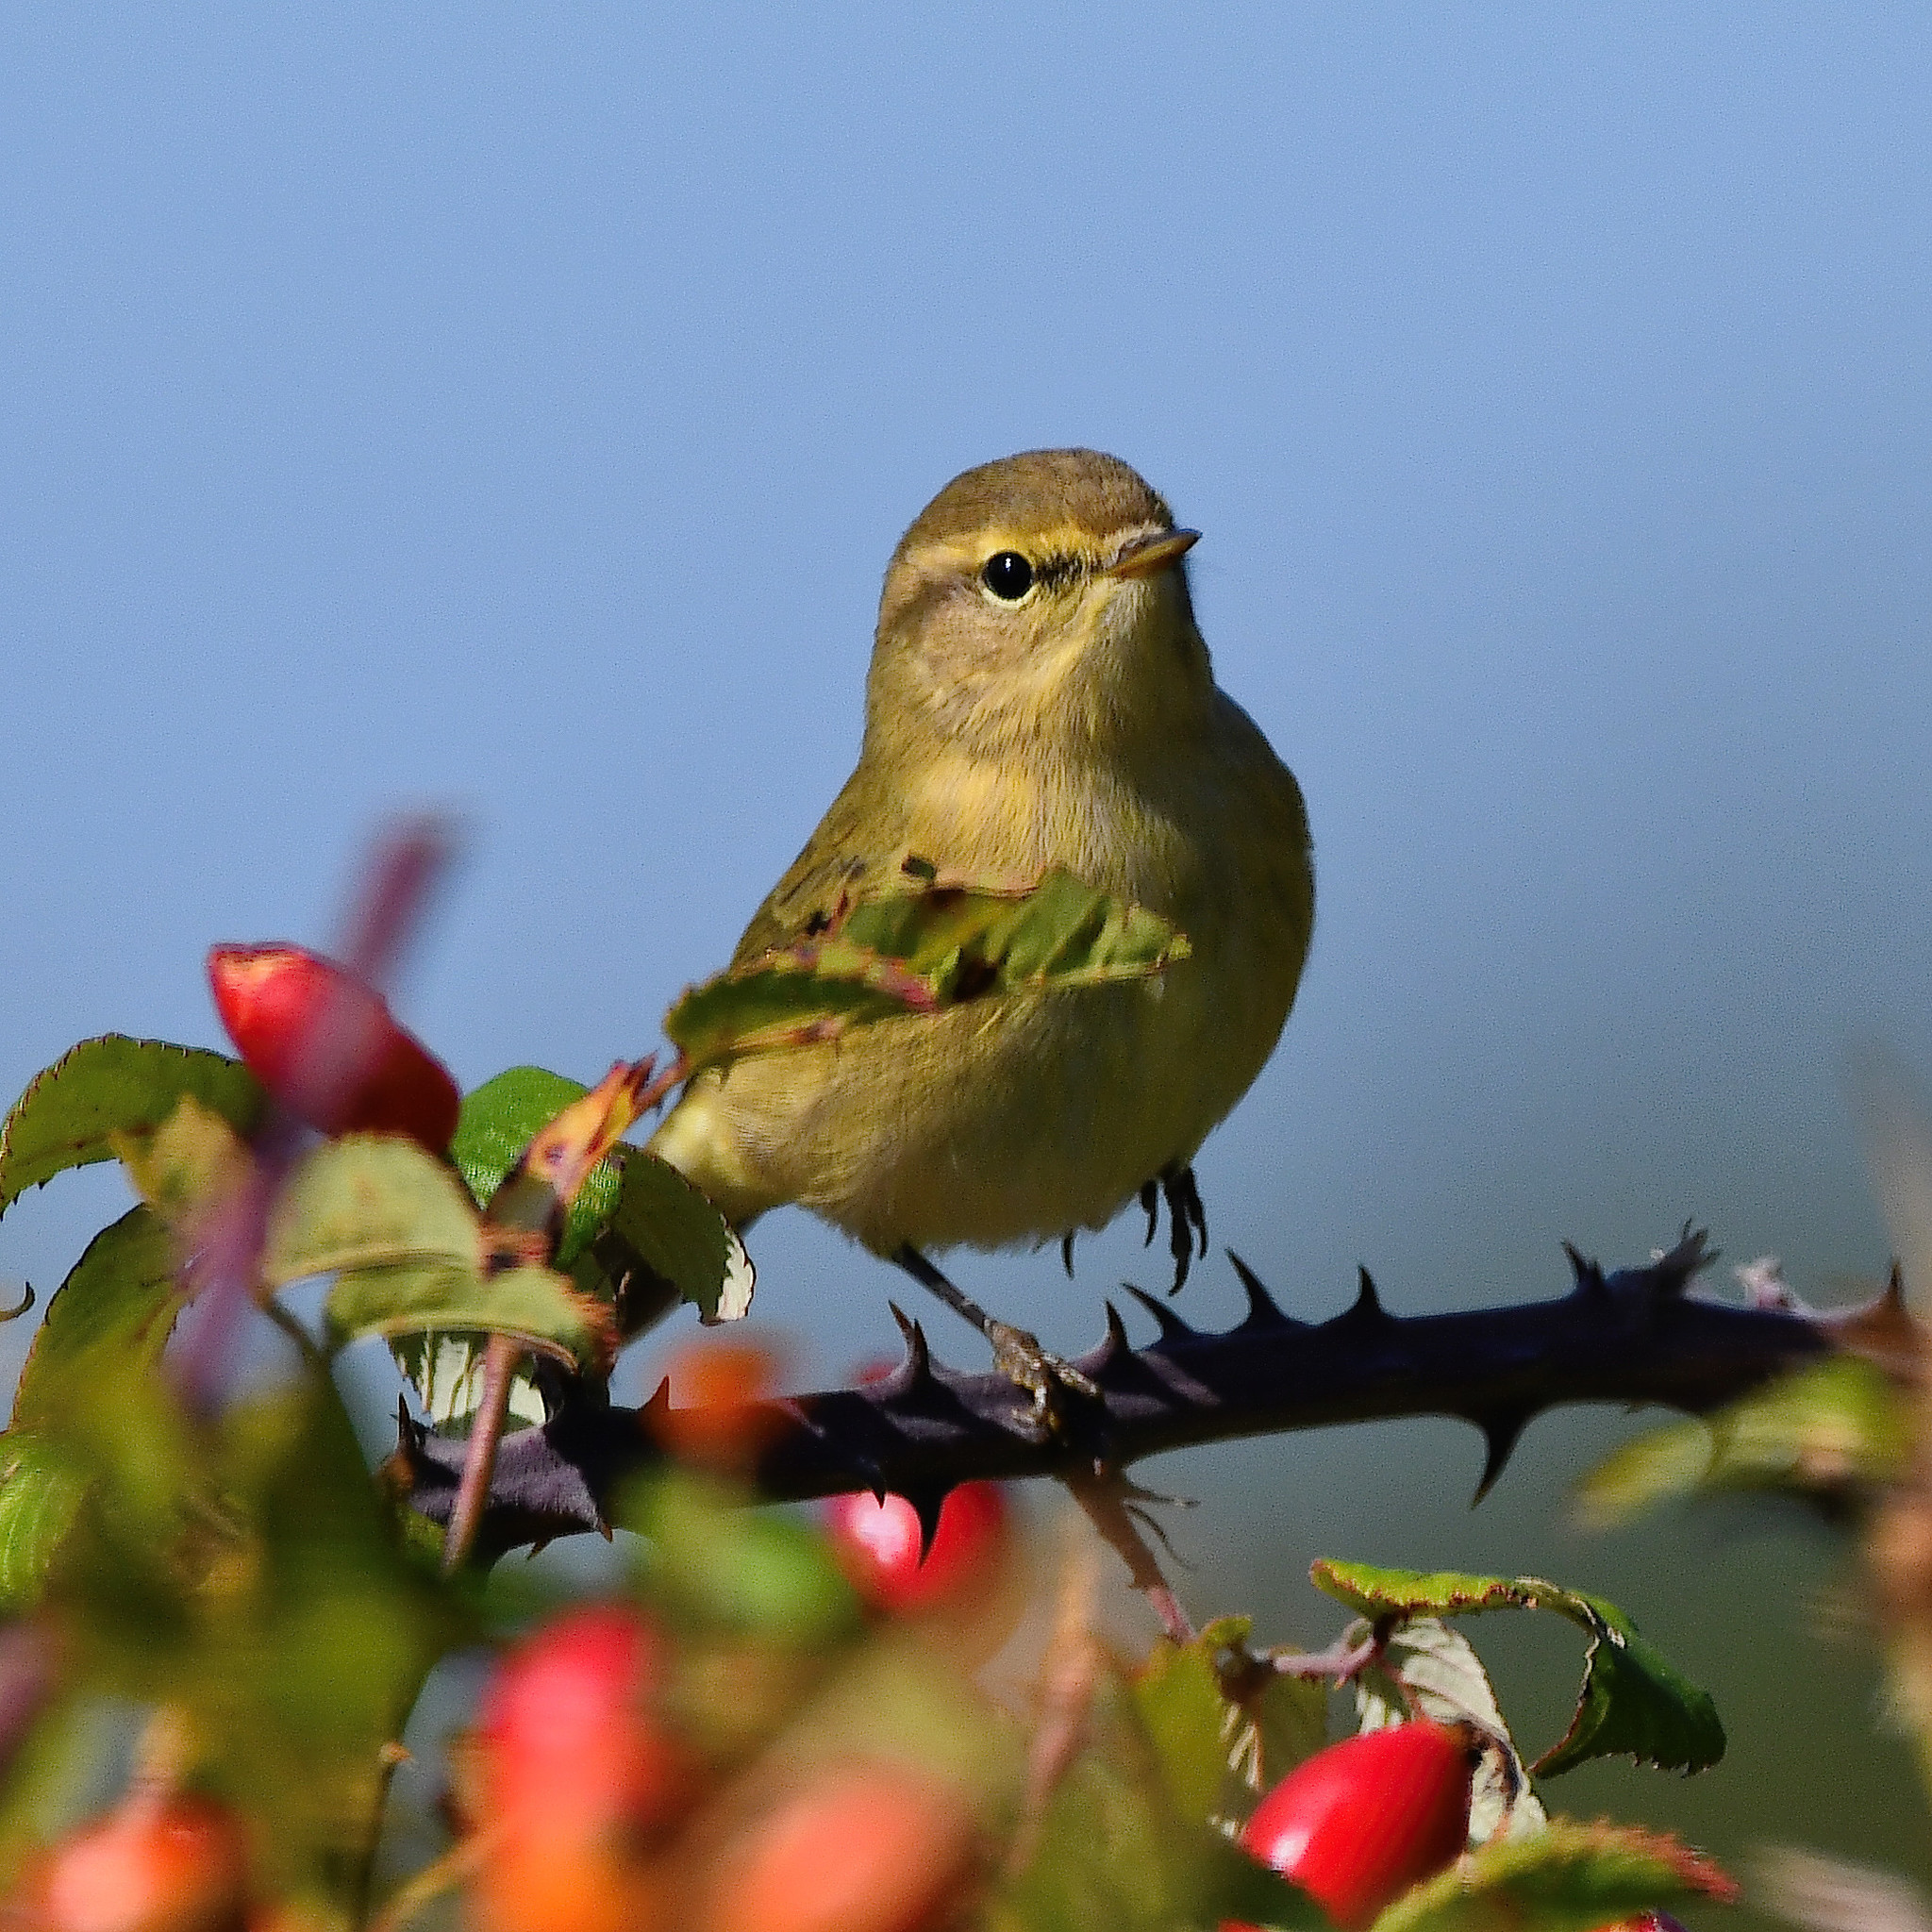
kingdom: Animalia
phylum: Chordata
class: Aves
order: Passeriformes
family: Phylloscopidae
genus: Phylloscopus
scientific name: Phylloscopus collybita
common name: Common chiffchaff
